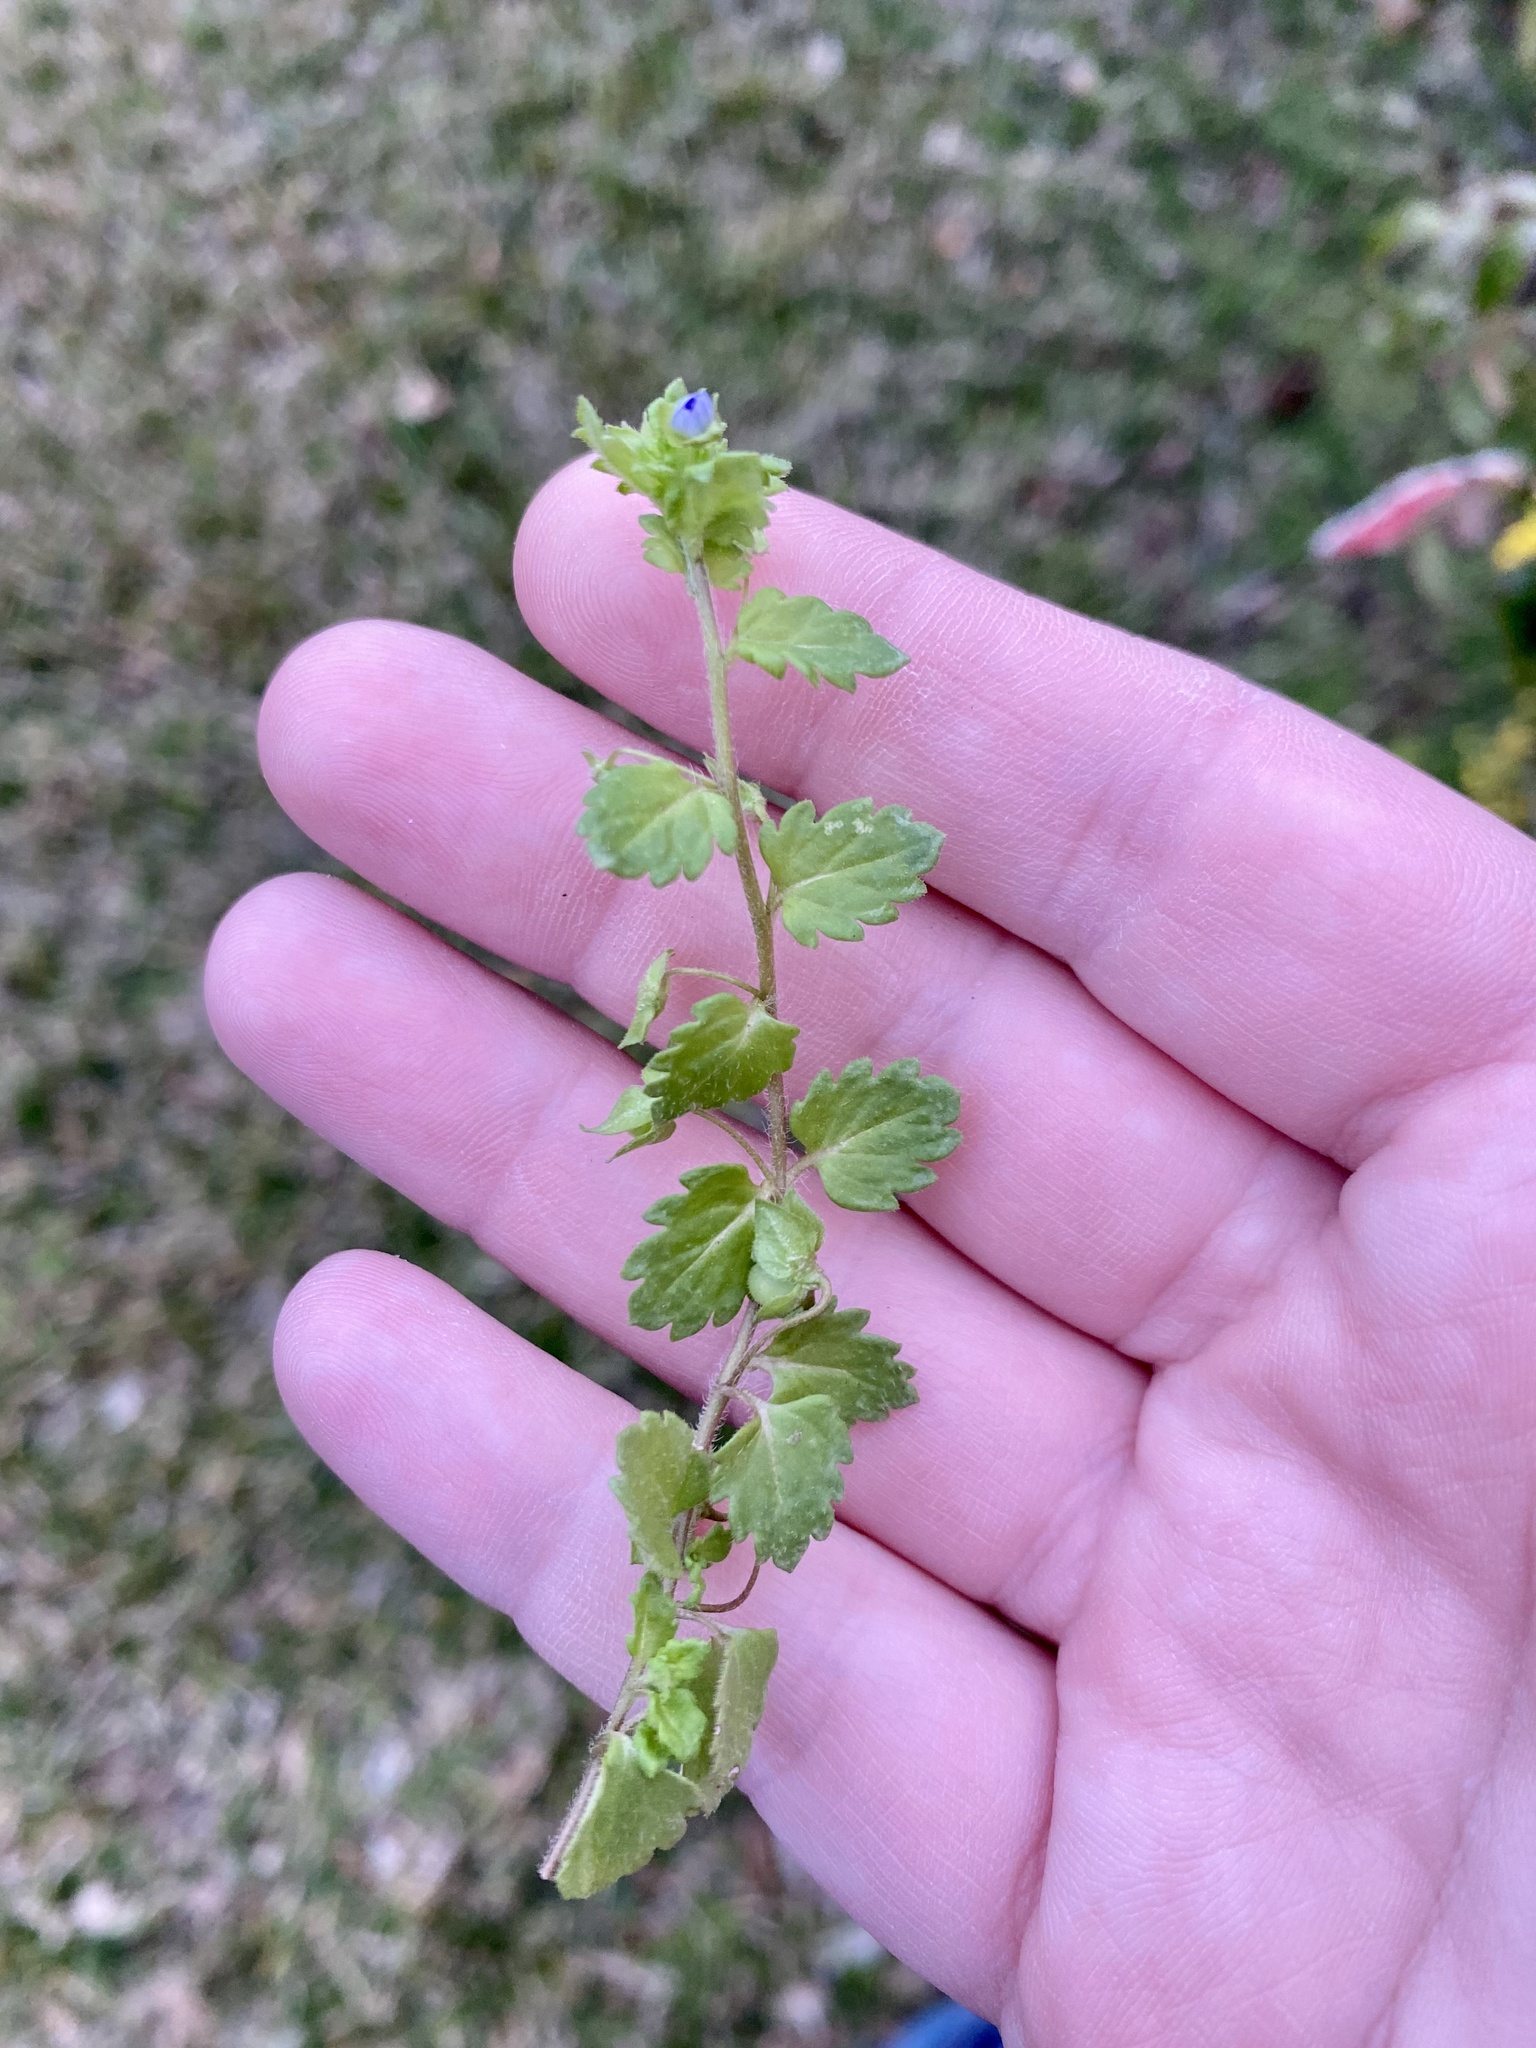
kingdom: Plantae
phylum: Tracheophyta
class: Magnoliopsida
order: Lamiales
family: Plantaginaceae
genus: Veronica
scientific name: Veronica polita
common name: Grey field-speedwell
